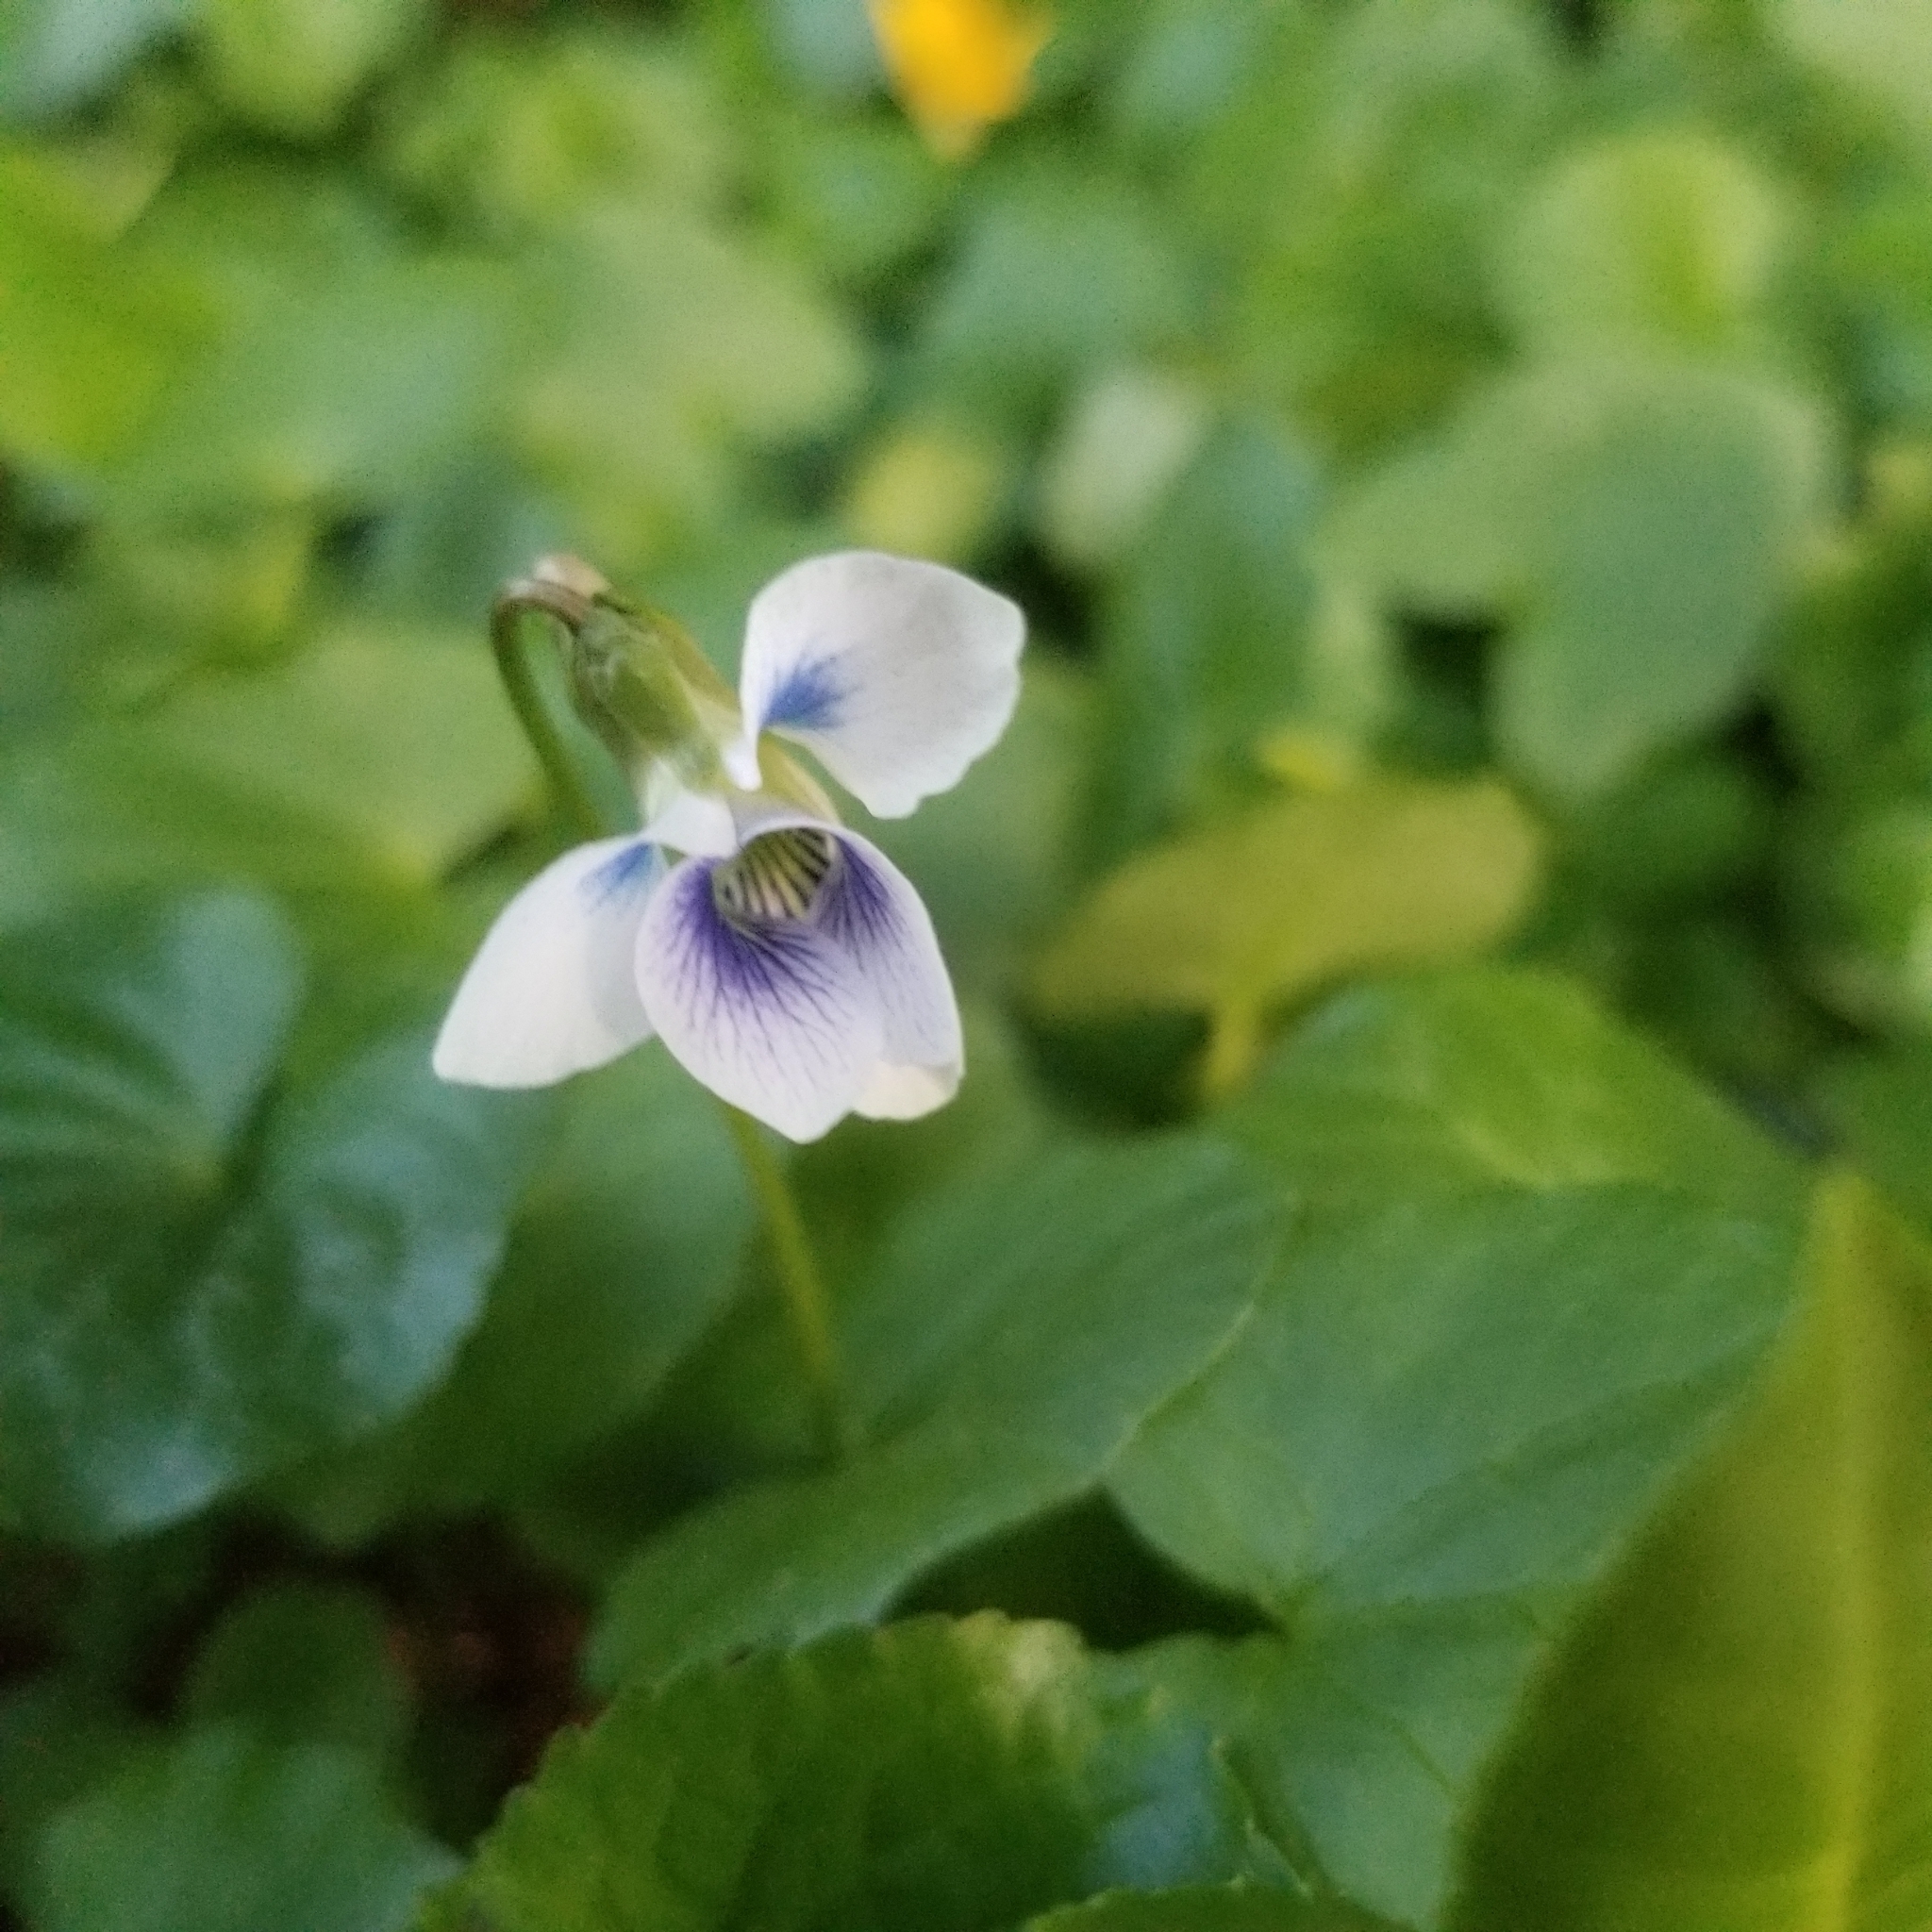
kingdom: Plantae
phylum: Tracheophyta
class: Magnoliopsida
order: Malpighiales
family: Violaceae
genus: Viola
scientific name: Viola sororia
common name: Dooryard violet
